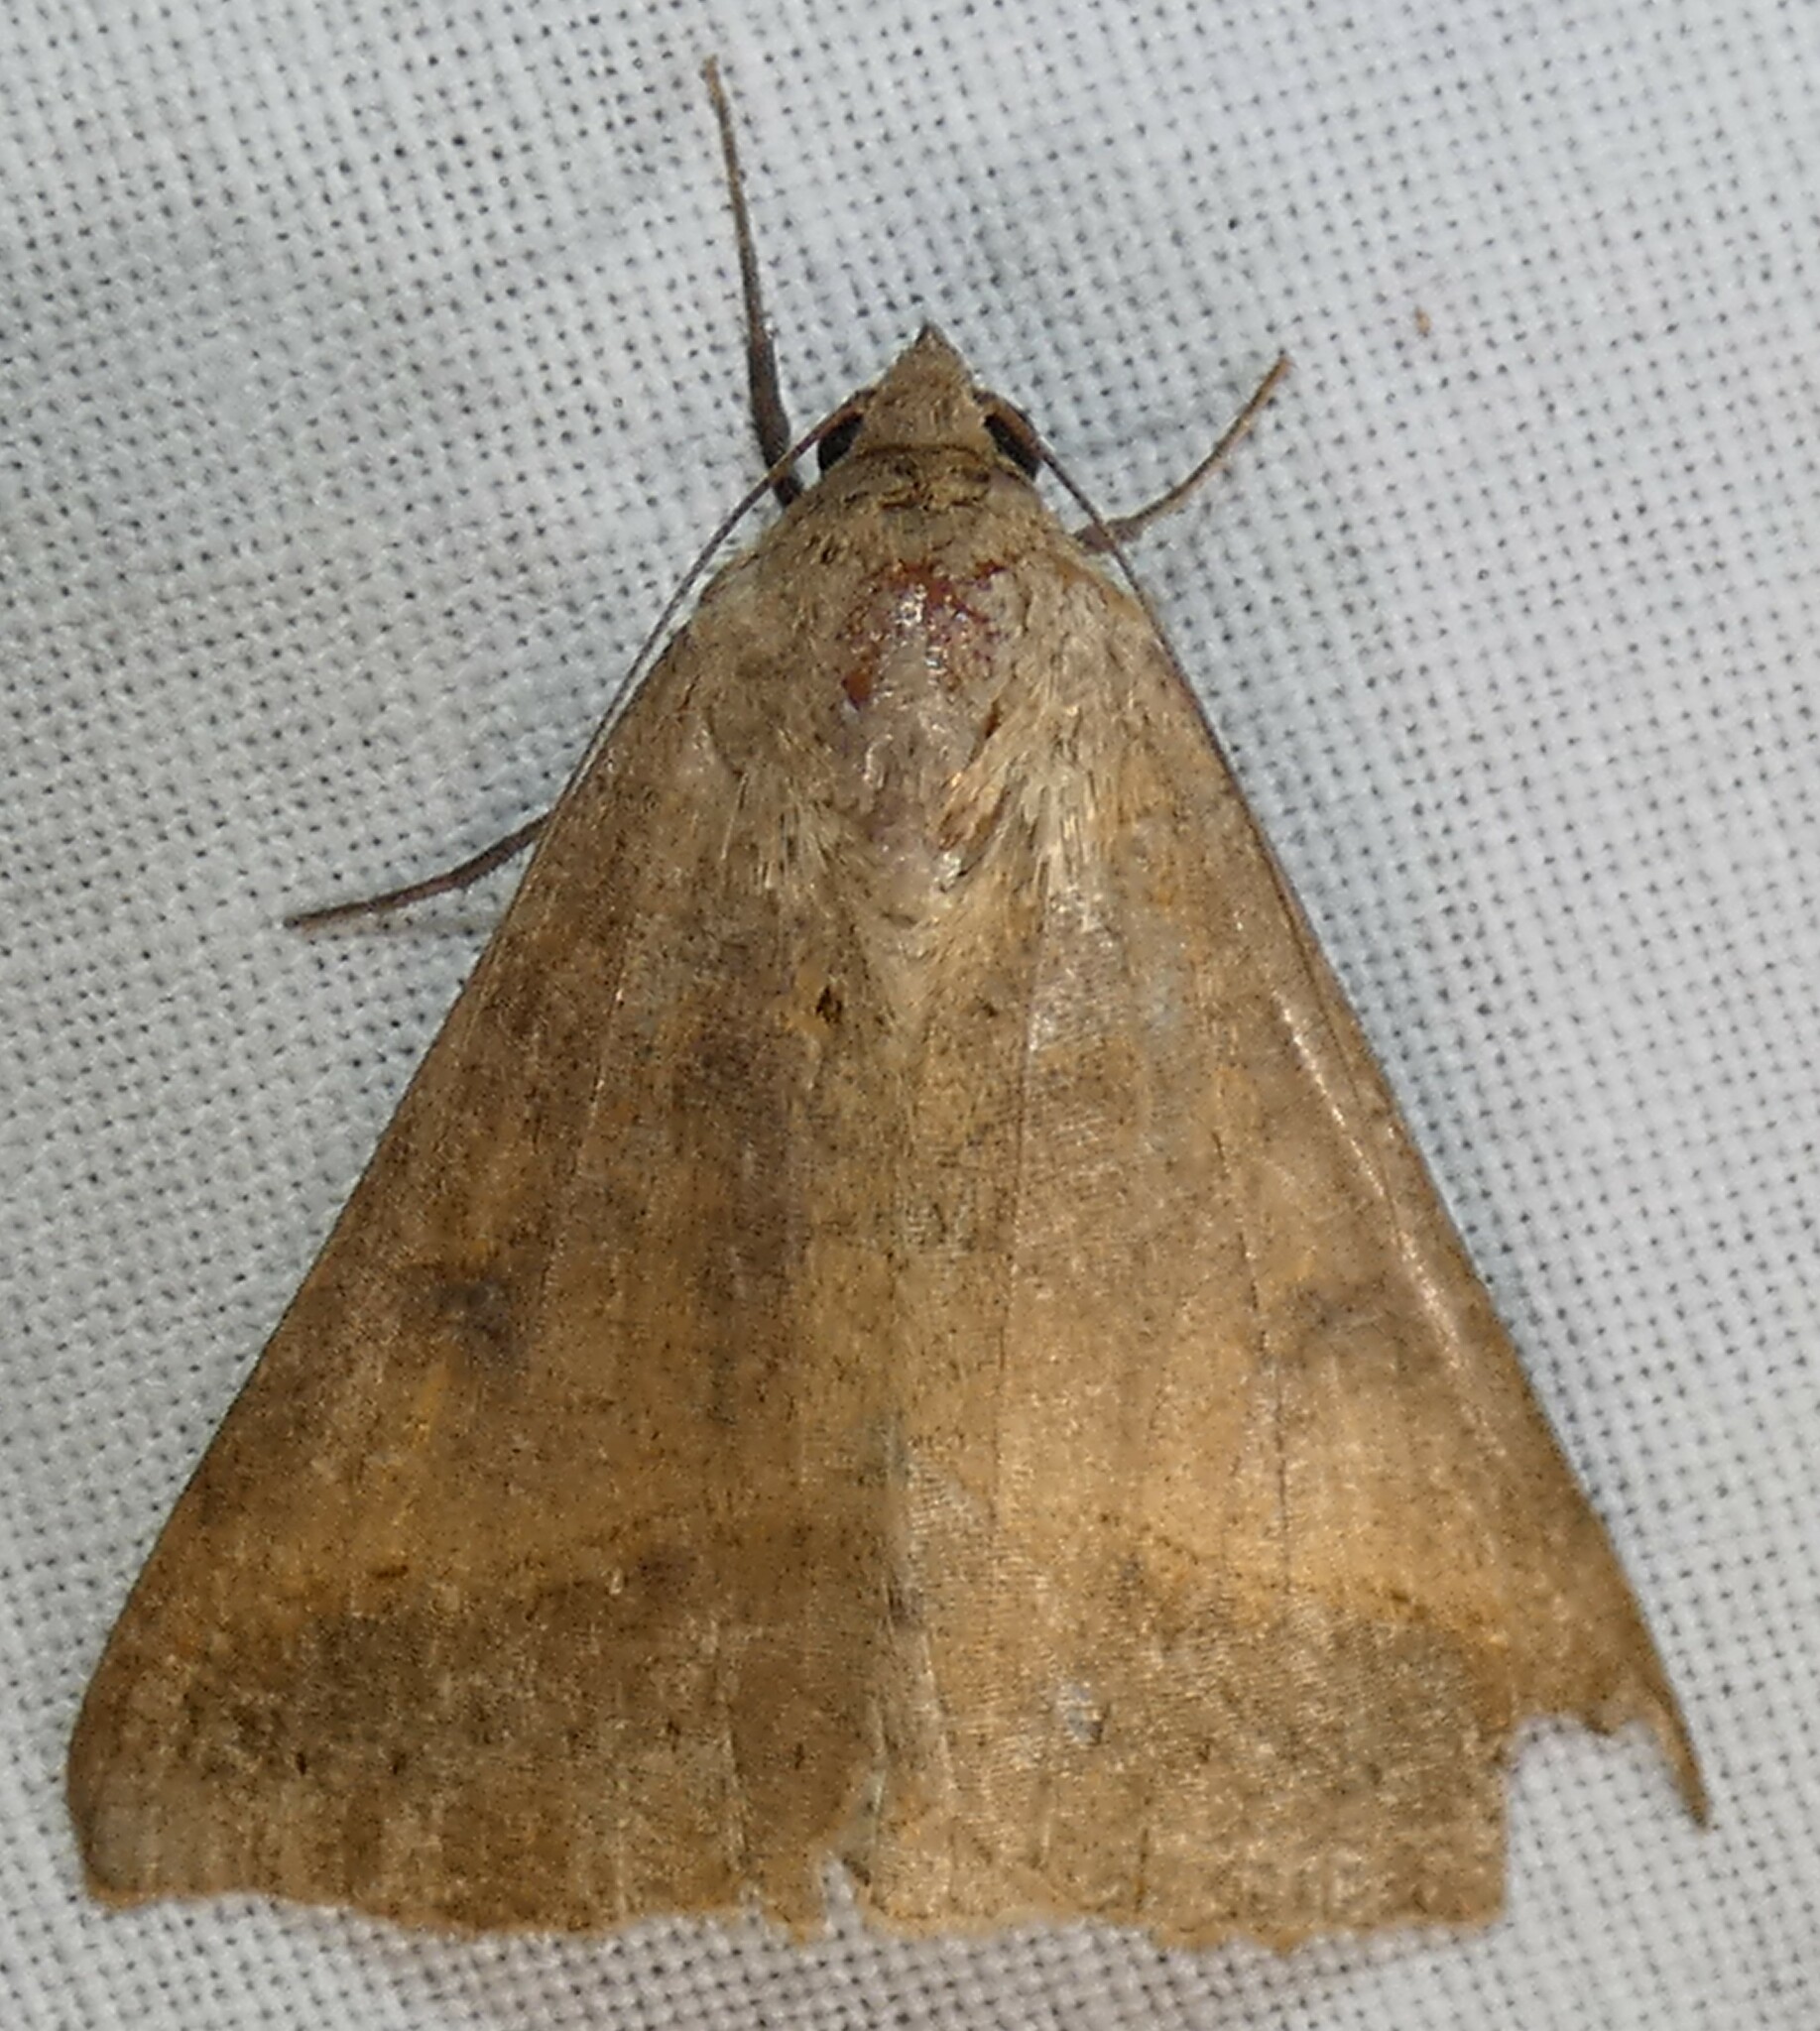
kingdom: Animalia
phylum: Arthropoda
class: Insecta
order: Lepidoptera
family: Erebidae
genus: Mocis
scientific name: Mocis disseverans
